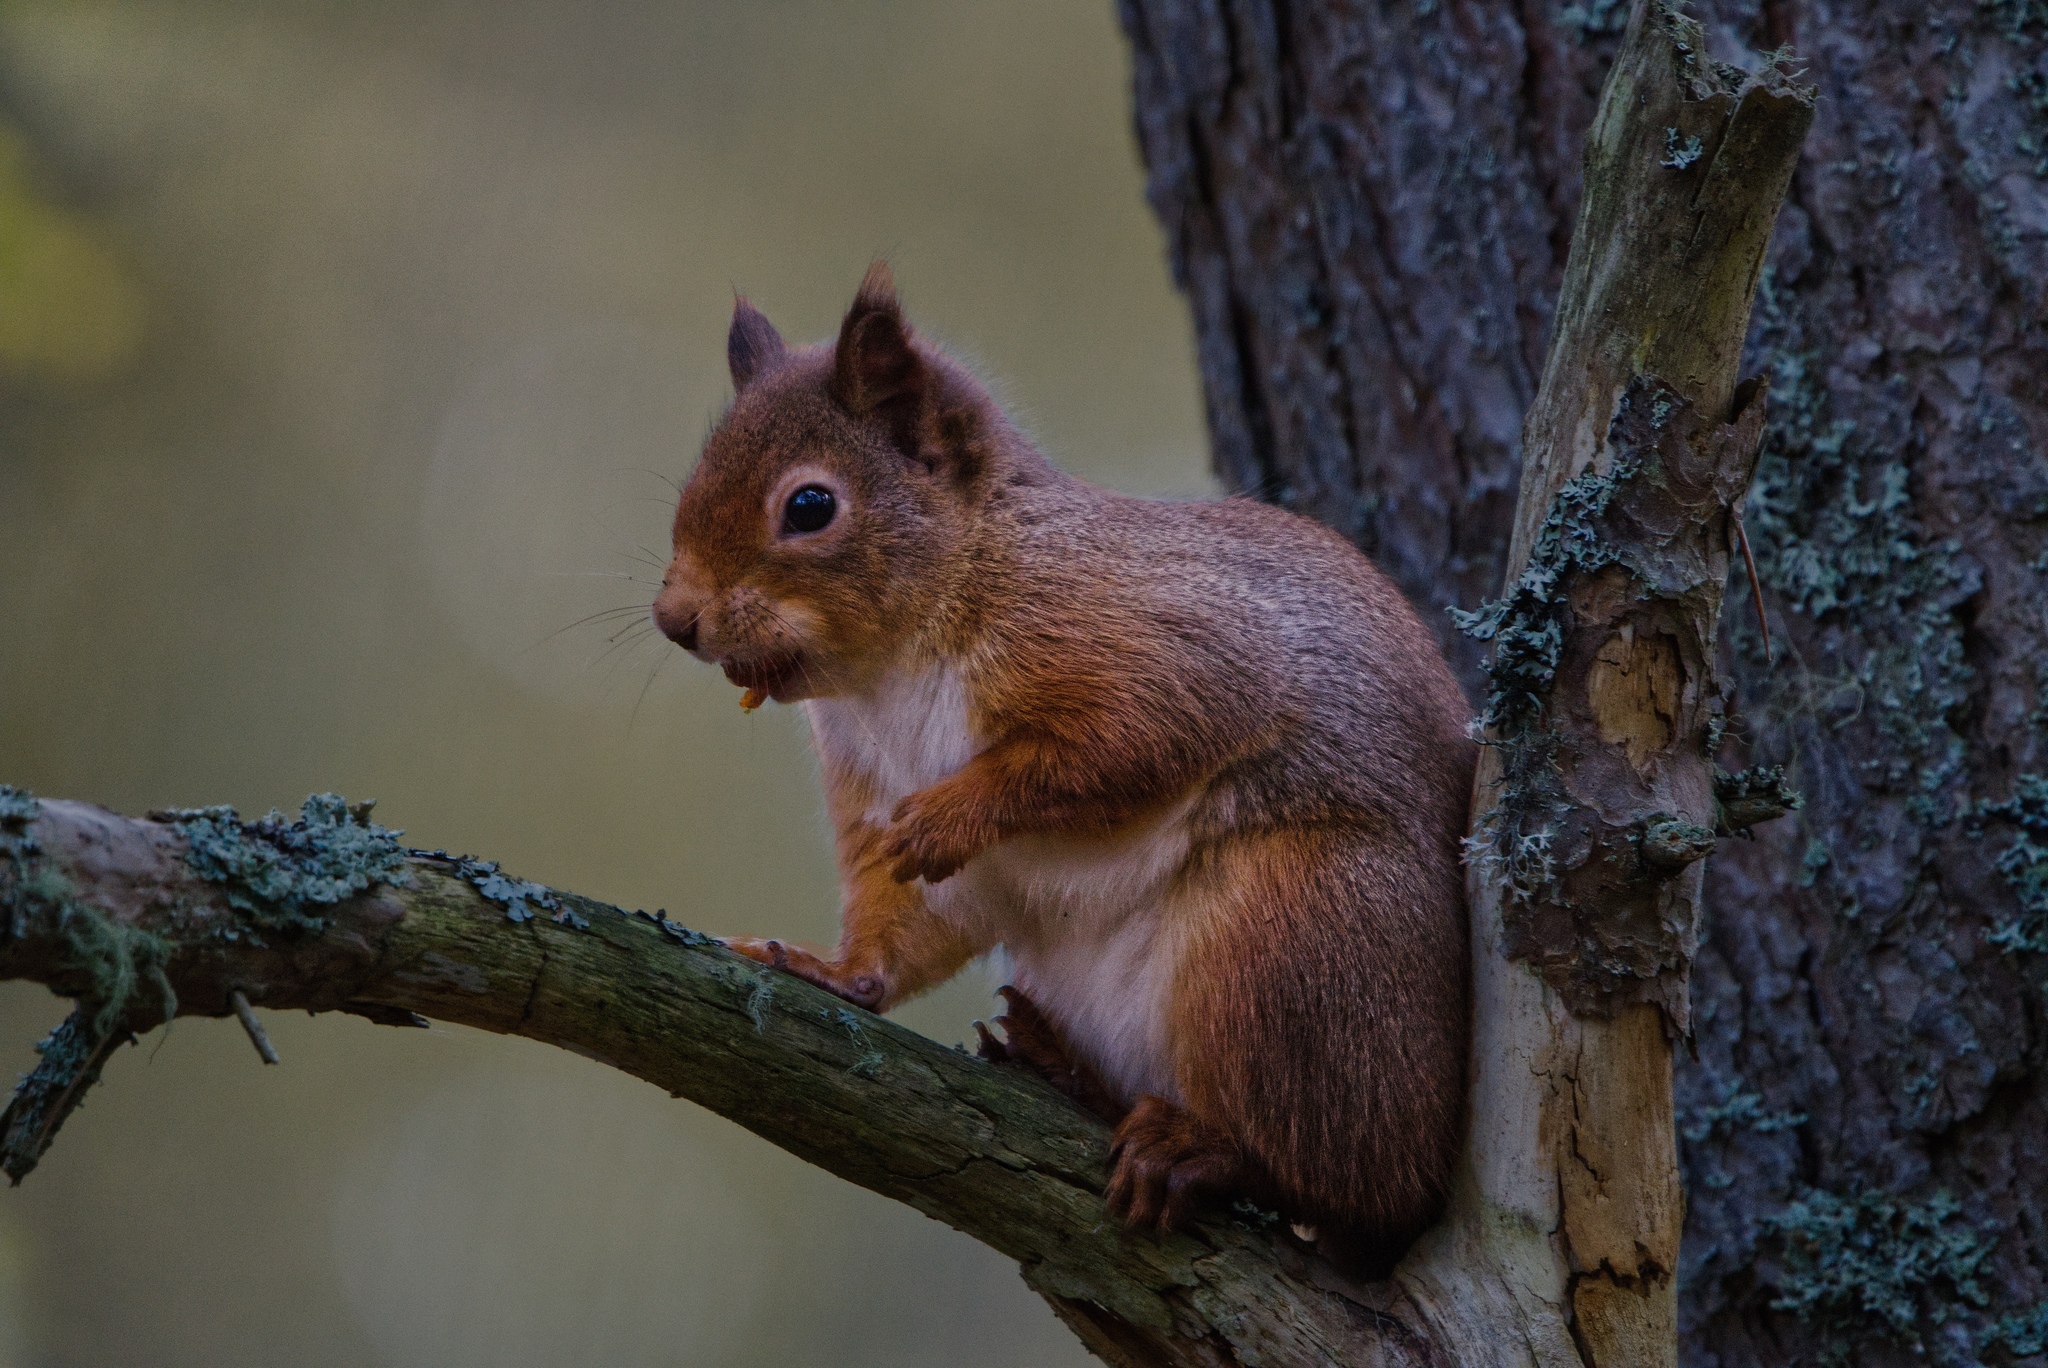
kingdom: Animalia
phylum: Chordata
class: Mammalia
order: Rodentia
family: Sciuridae
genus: Sciurus
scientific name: Sciurus vulgaris
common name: Eurasian red squirrel
